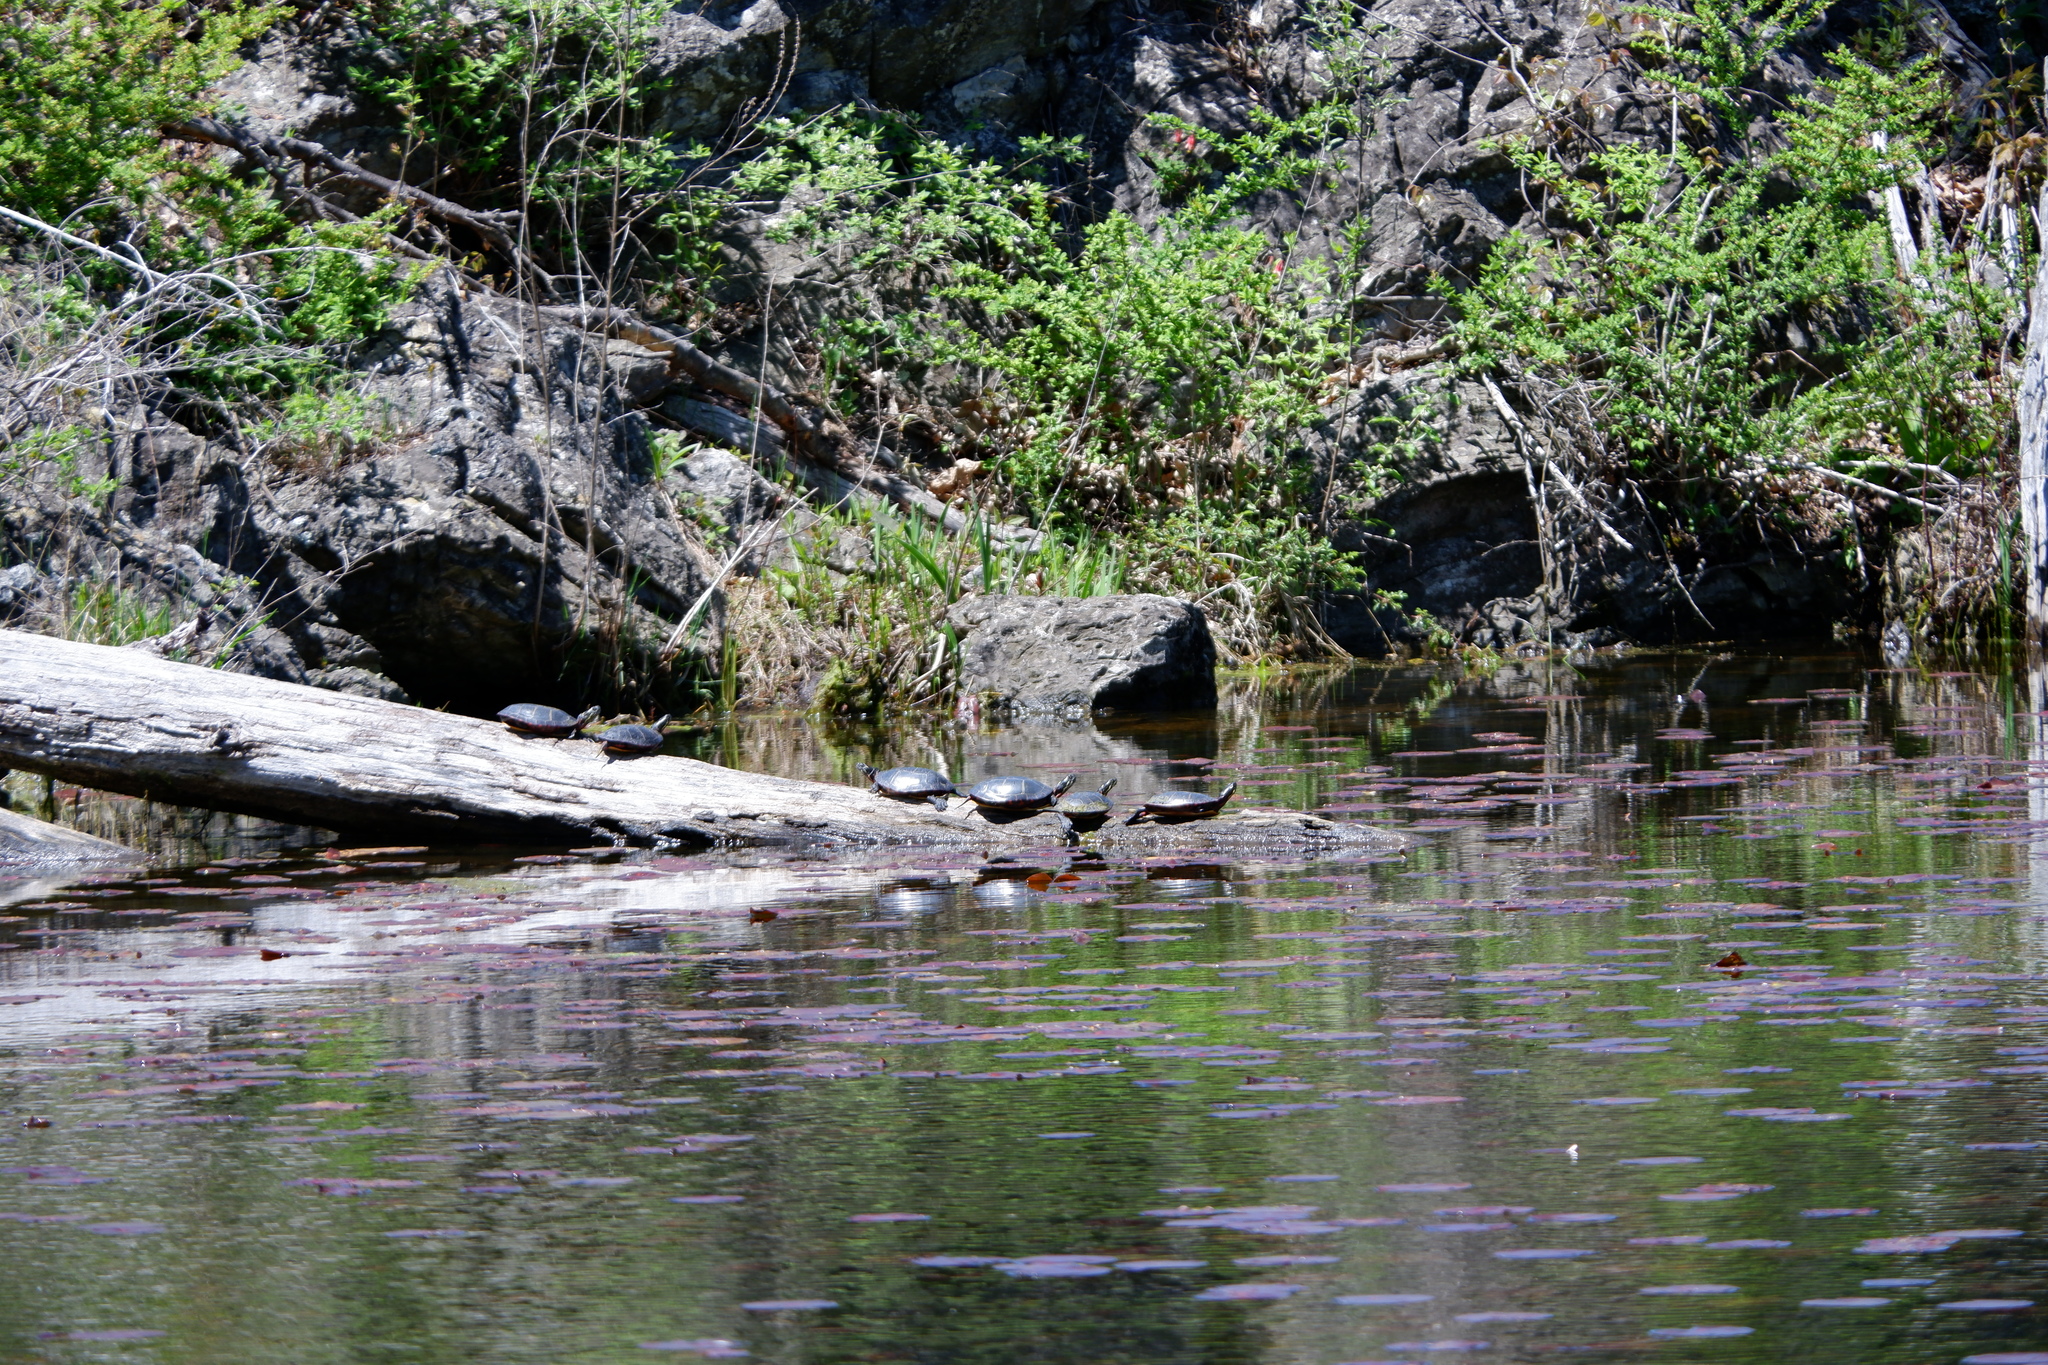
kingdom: Animalia
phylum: Chordata
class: Testudines
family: Emydidae
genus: Chrysemys
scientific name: Chrysemys picta
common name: Painted turtle
